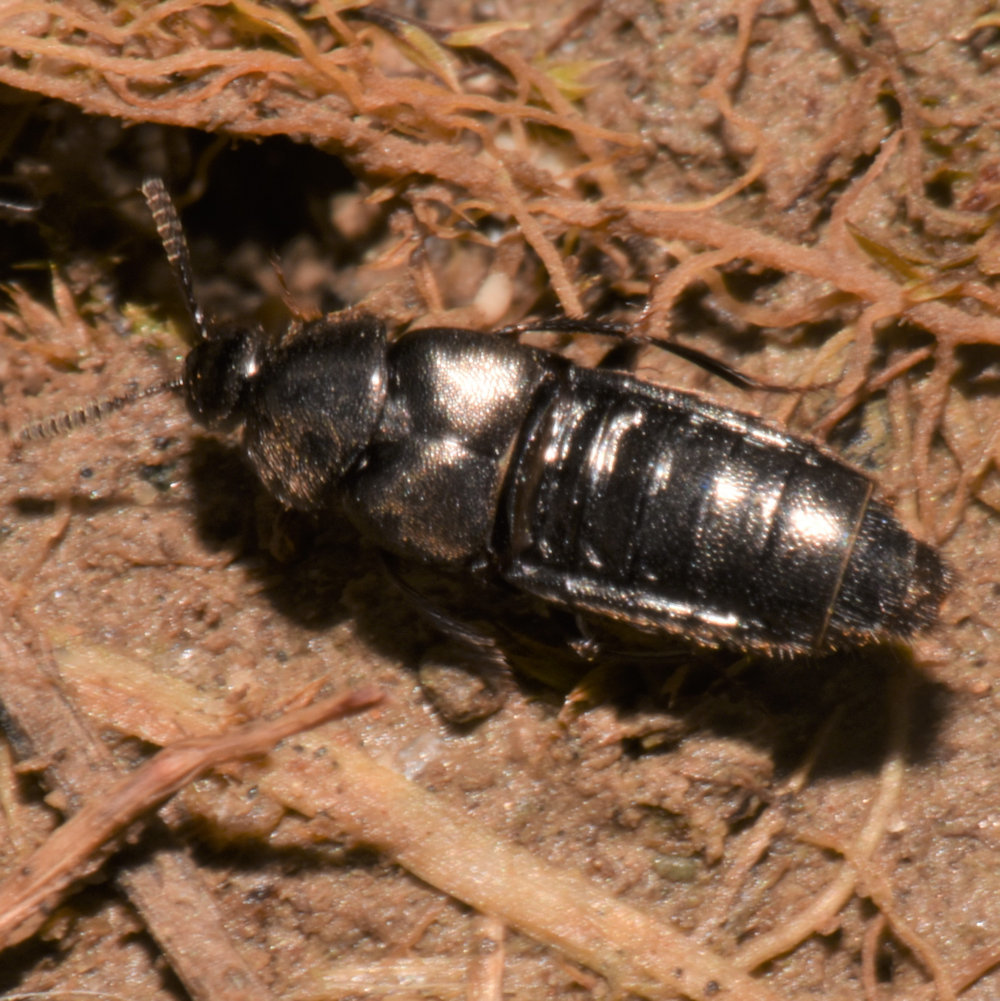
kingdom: Animalia
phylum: Arthropoda
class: Insecta
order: Coleoptera
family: Staphylinidae
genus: Aleochara
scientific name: Aleochara lata
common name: Rove beetle
